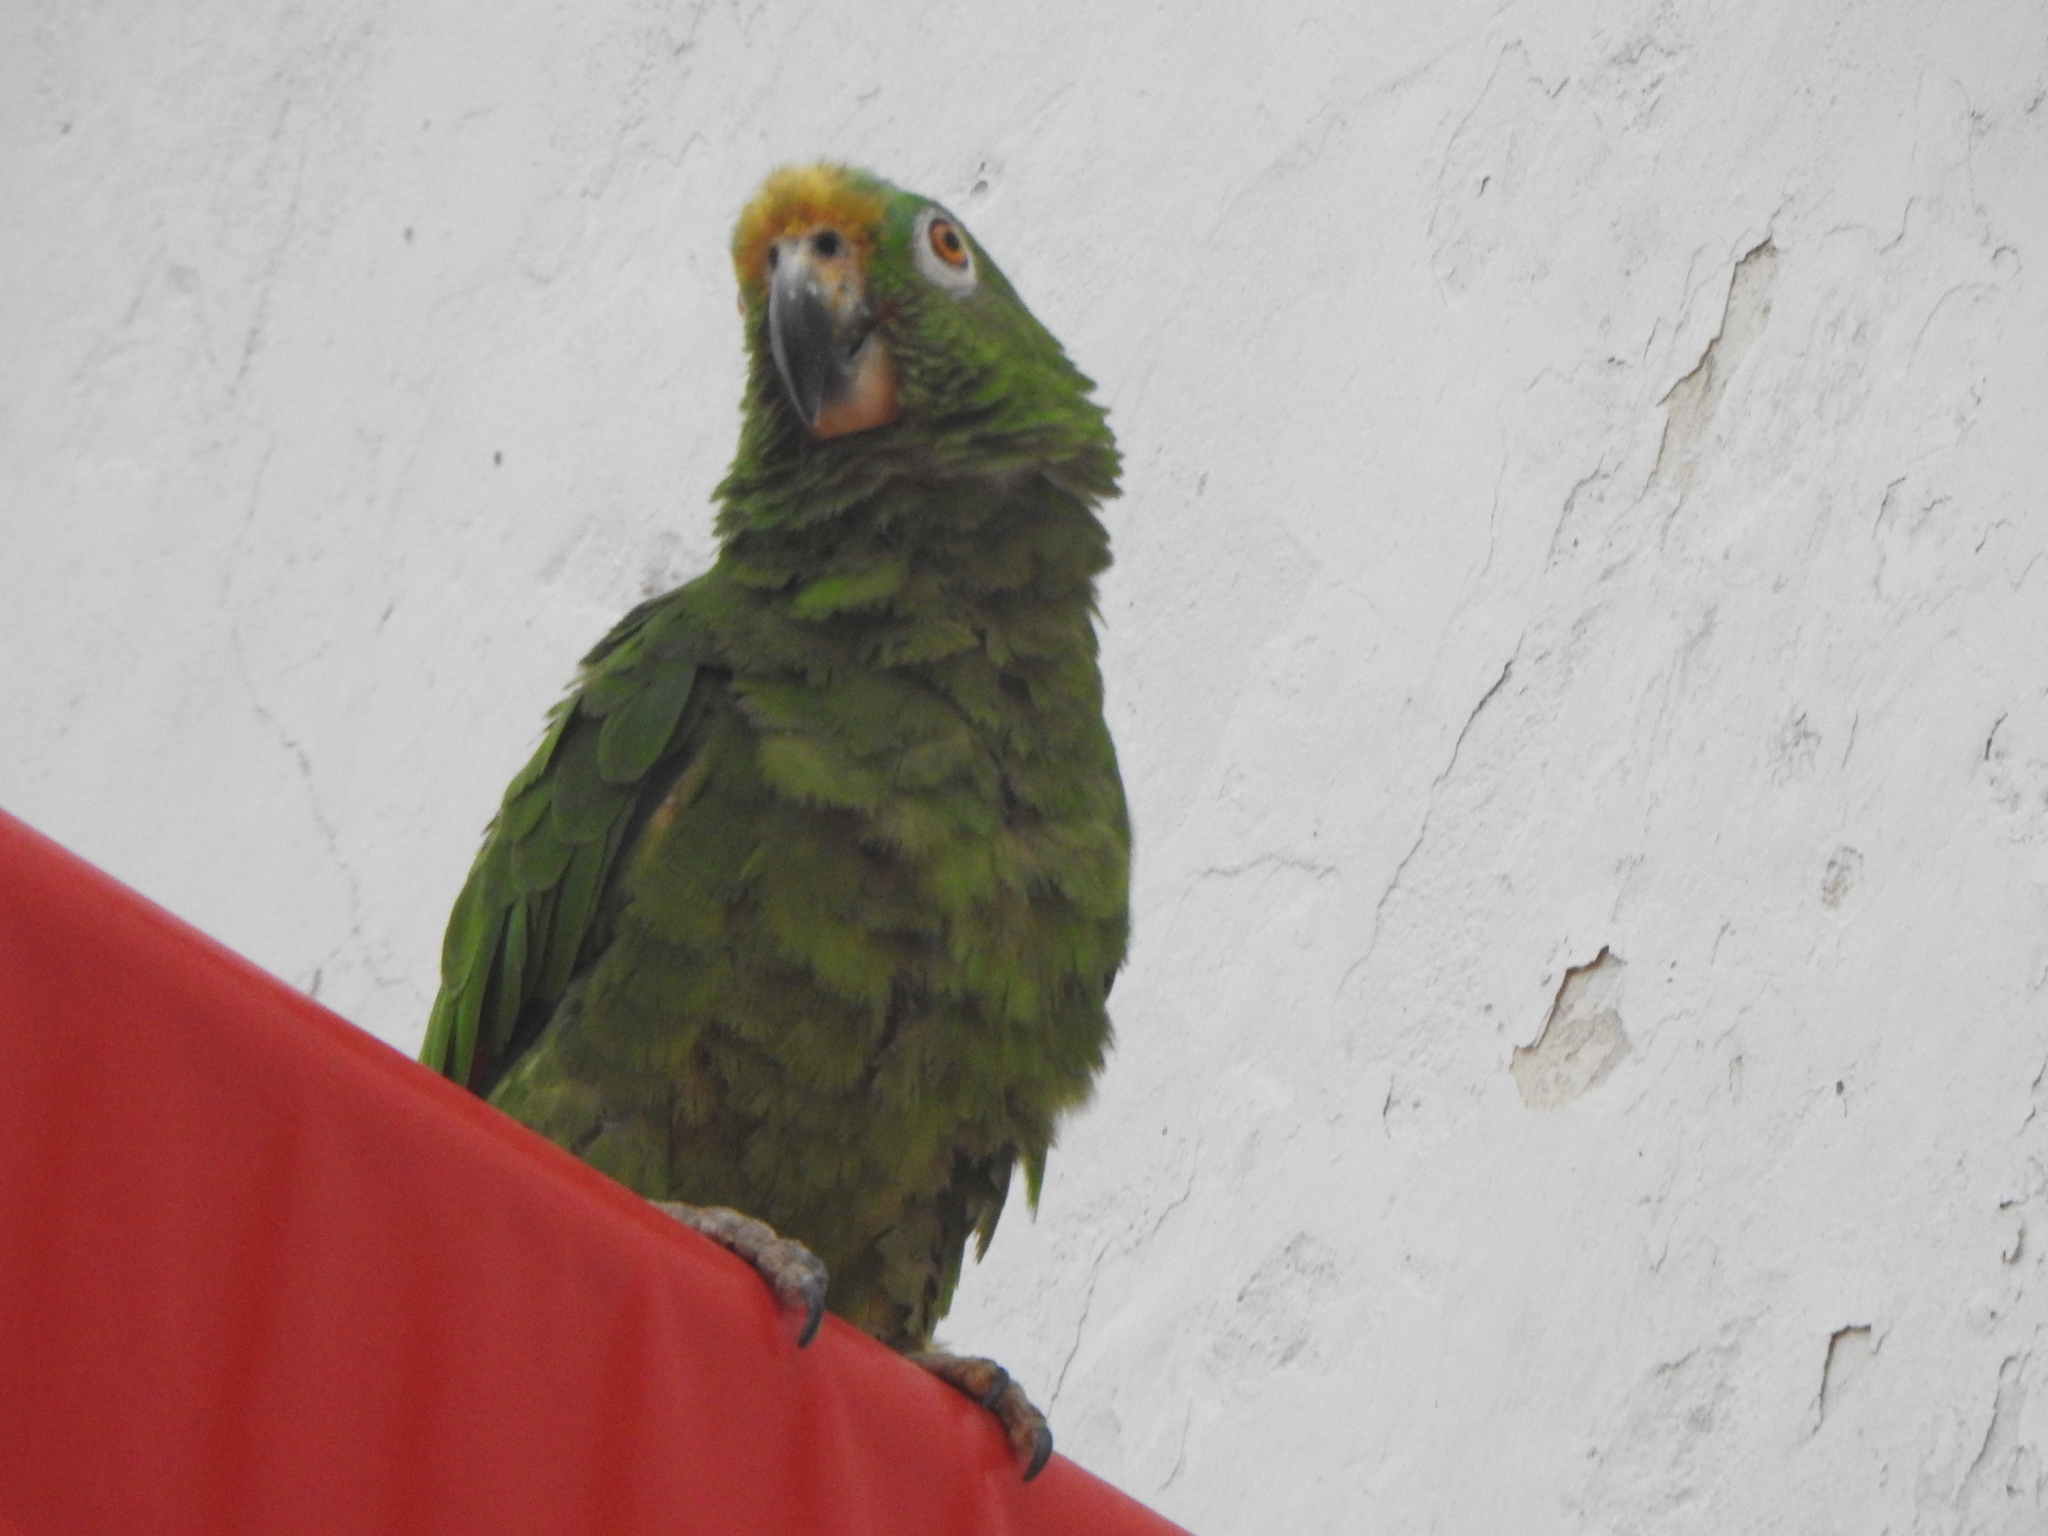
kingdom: Animalia
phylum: Chordata
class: Aves
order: Psittaciformes
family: Psittacidae
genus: Amazona
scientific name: Amazona ochrocephala
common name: Yellow-crowned amazon
